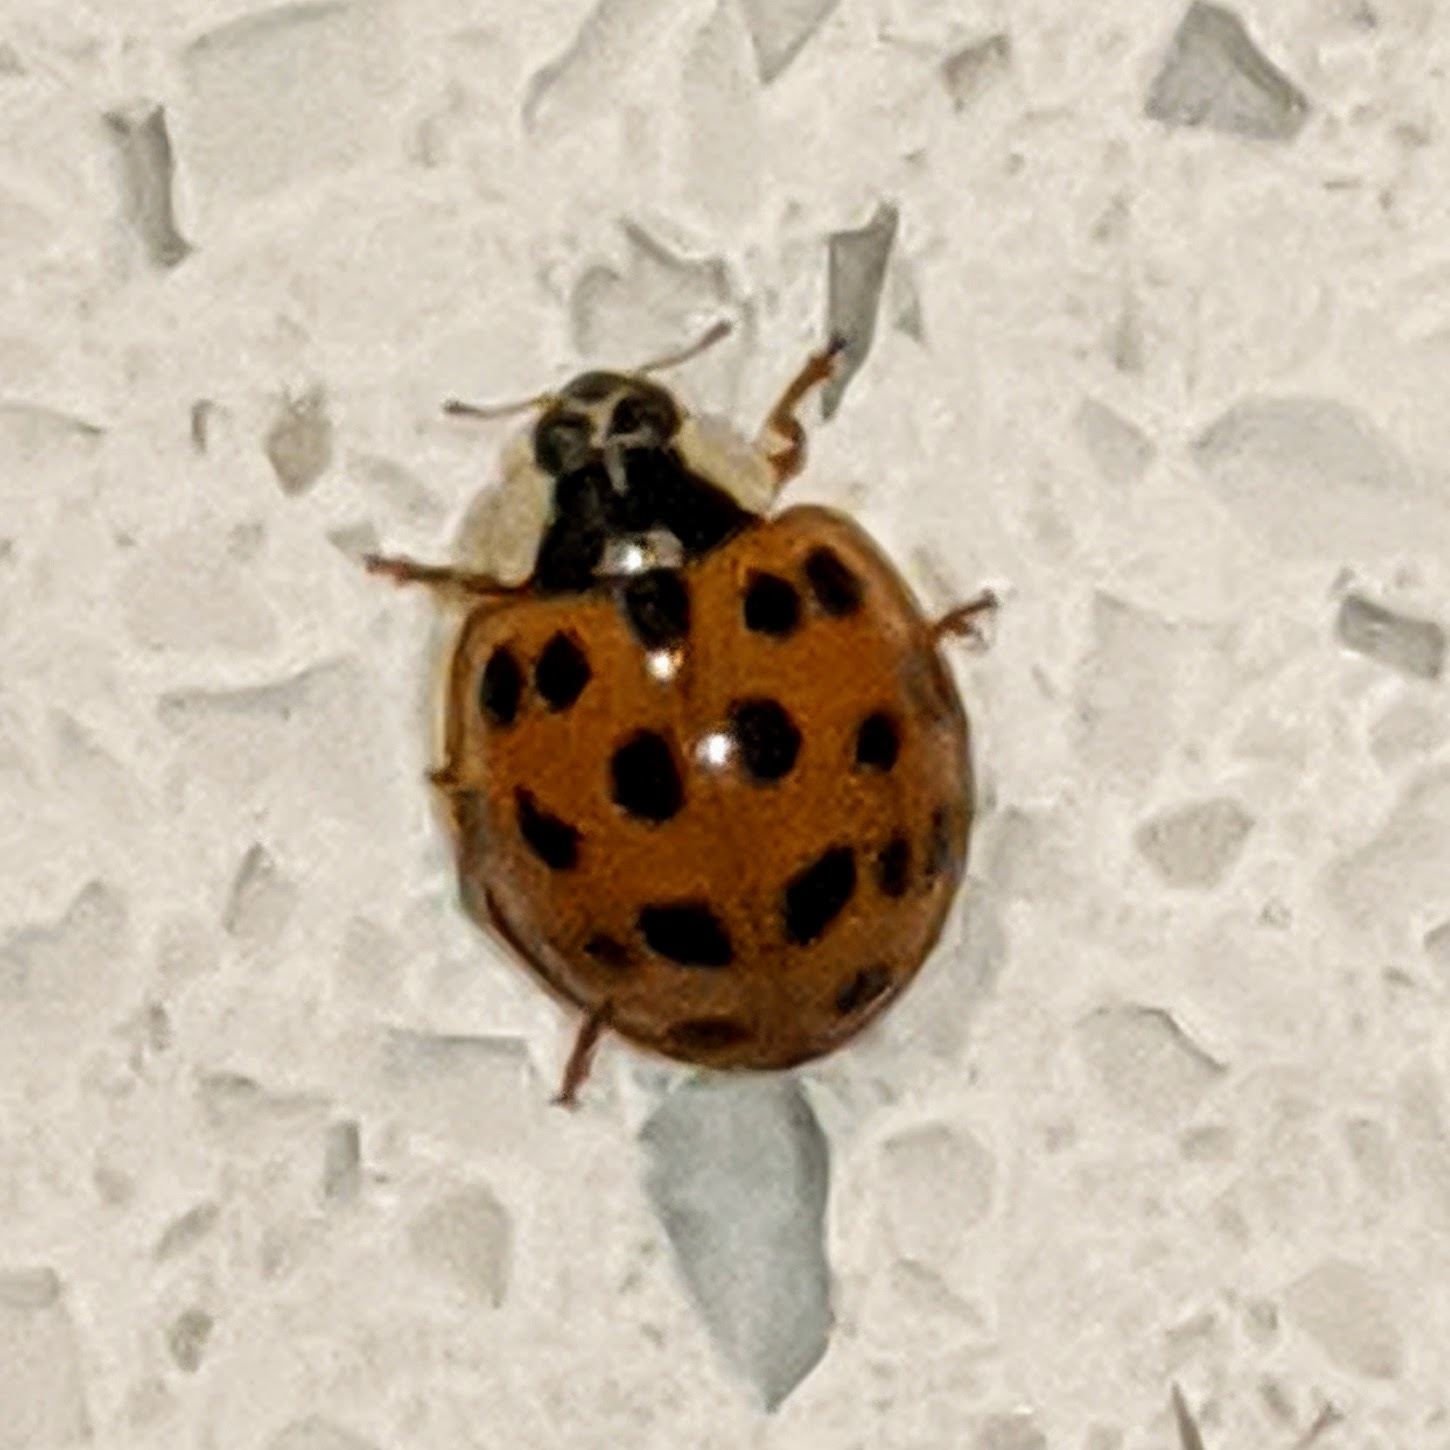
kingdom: Animalia
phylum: Arthropoda
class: Insecta
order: Coleoptera
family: Coccinellidae
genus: Harmonia
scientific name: Harmonia axyridis
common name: Harlequin ladybird
